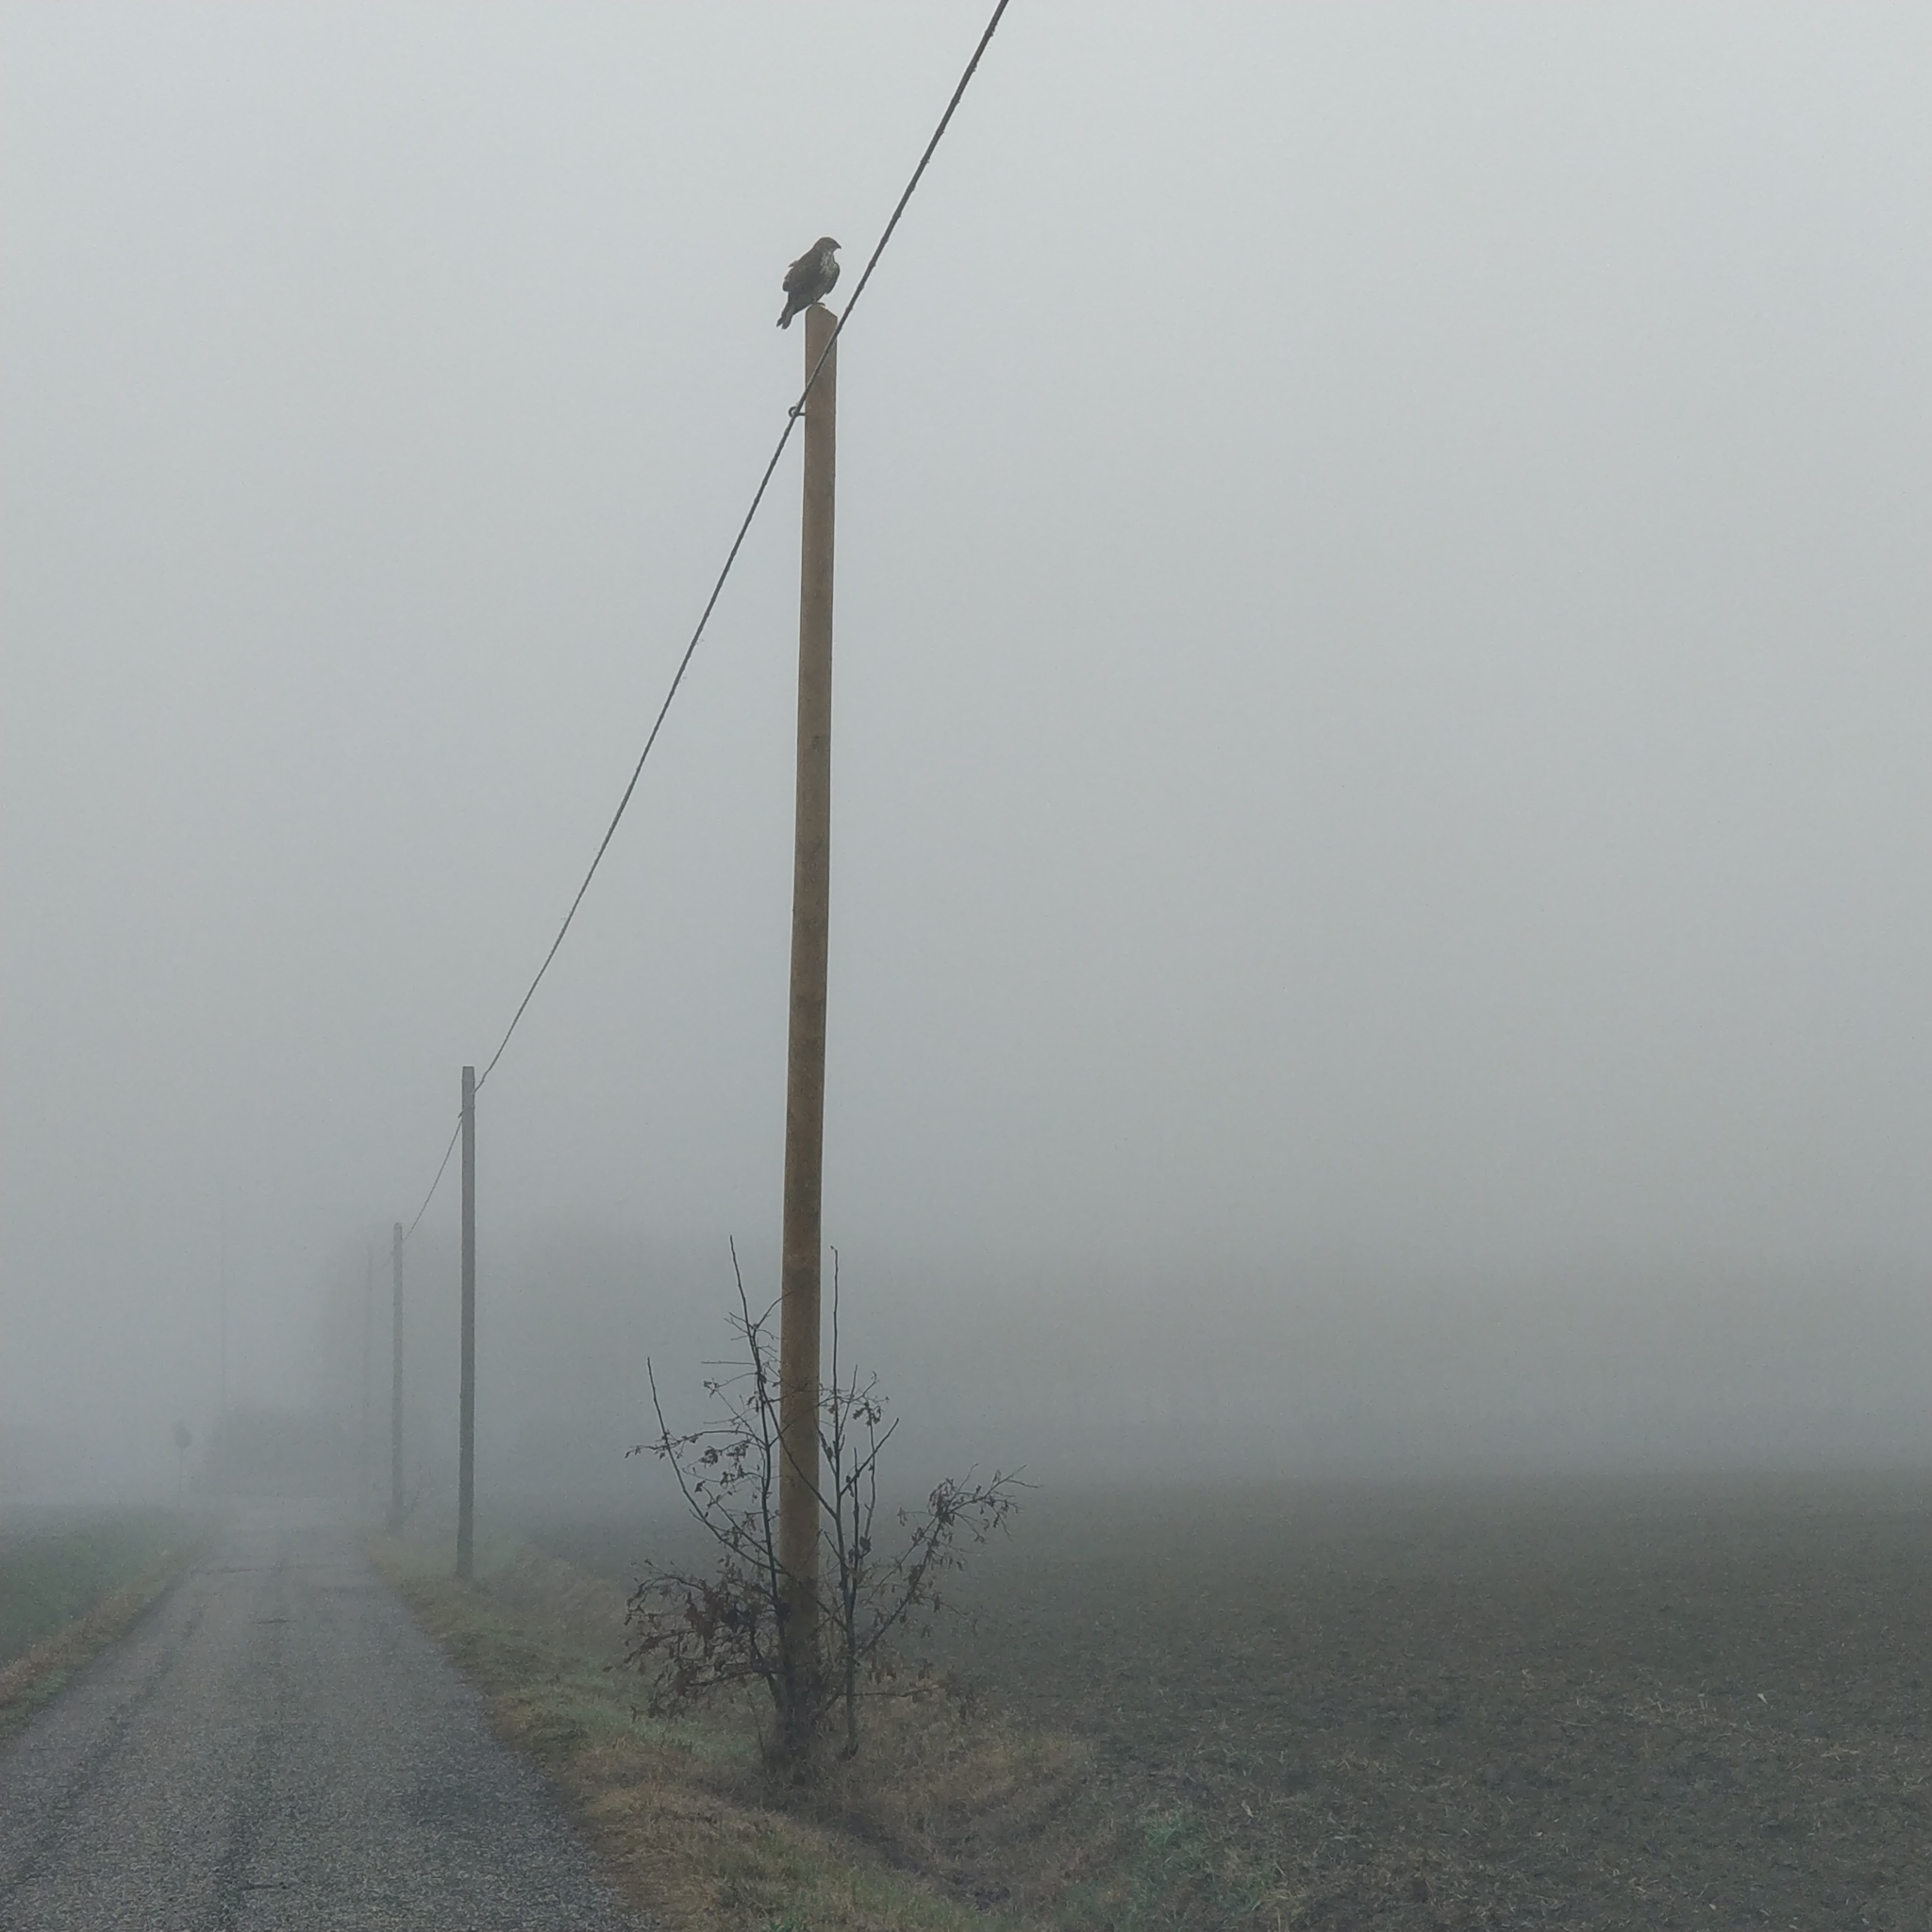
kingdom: Animalia
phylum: Chordata
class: Aves
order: Accipitriformes
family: Accipitridae
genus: Buteo
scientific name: Buteo buteo
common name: Common buzzard
